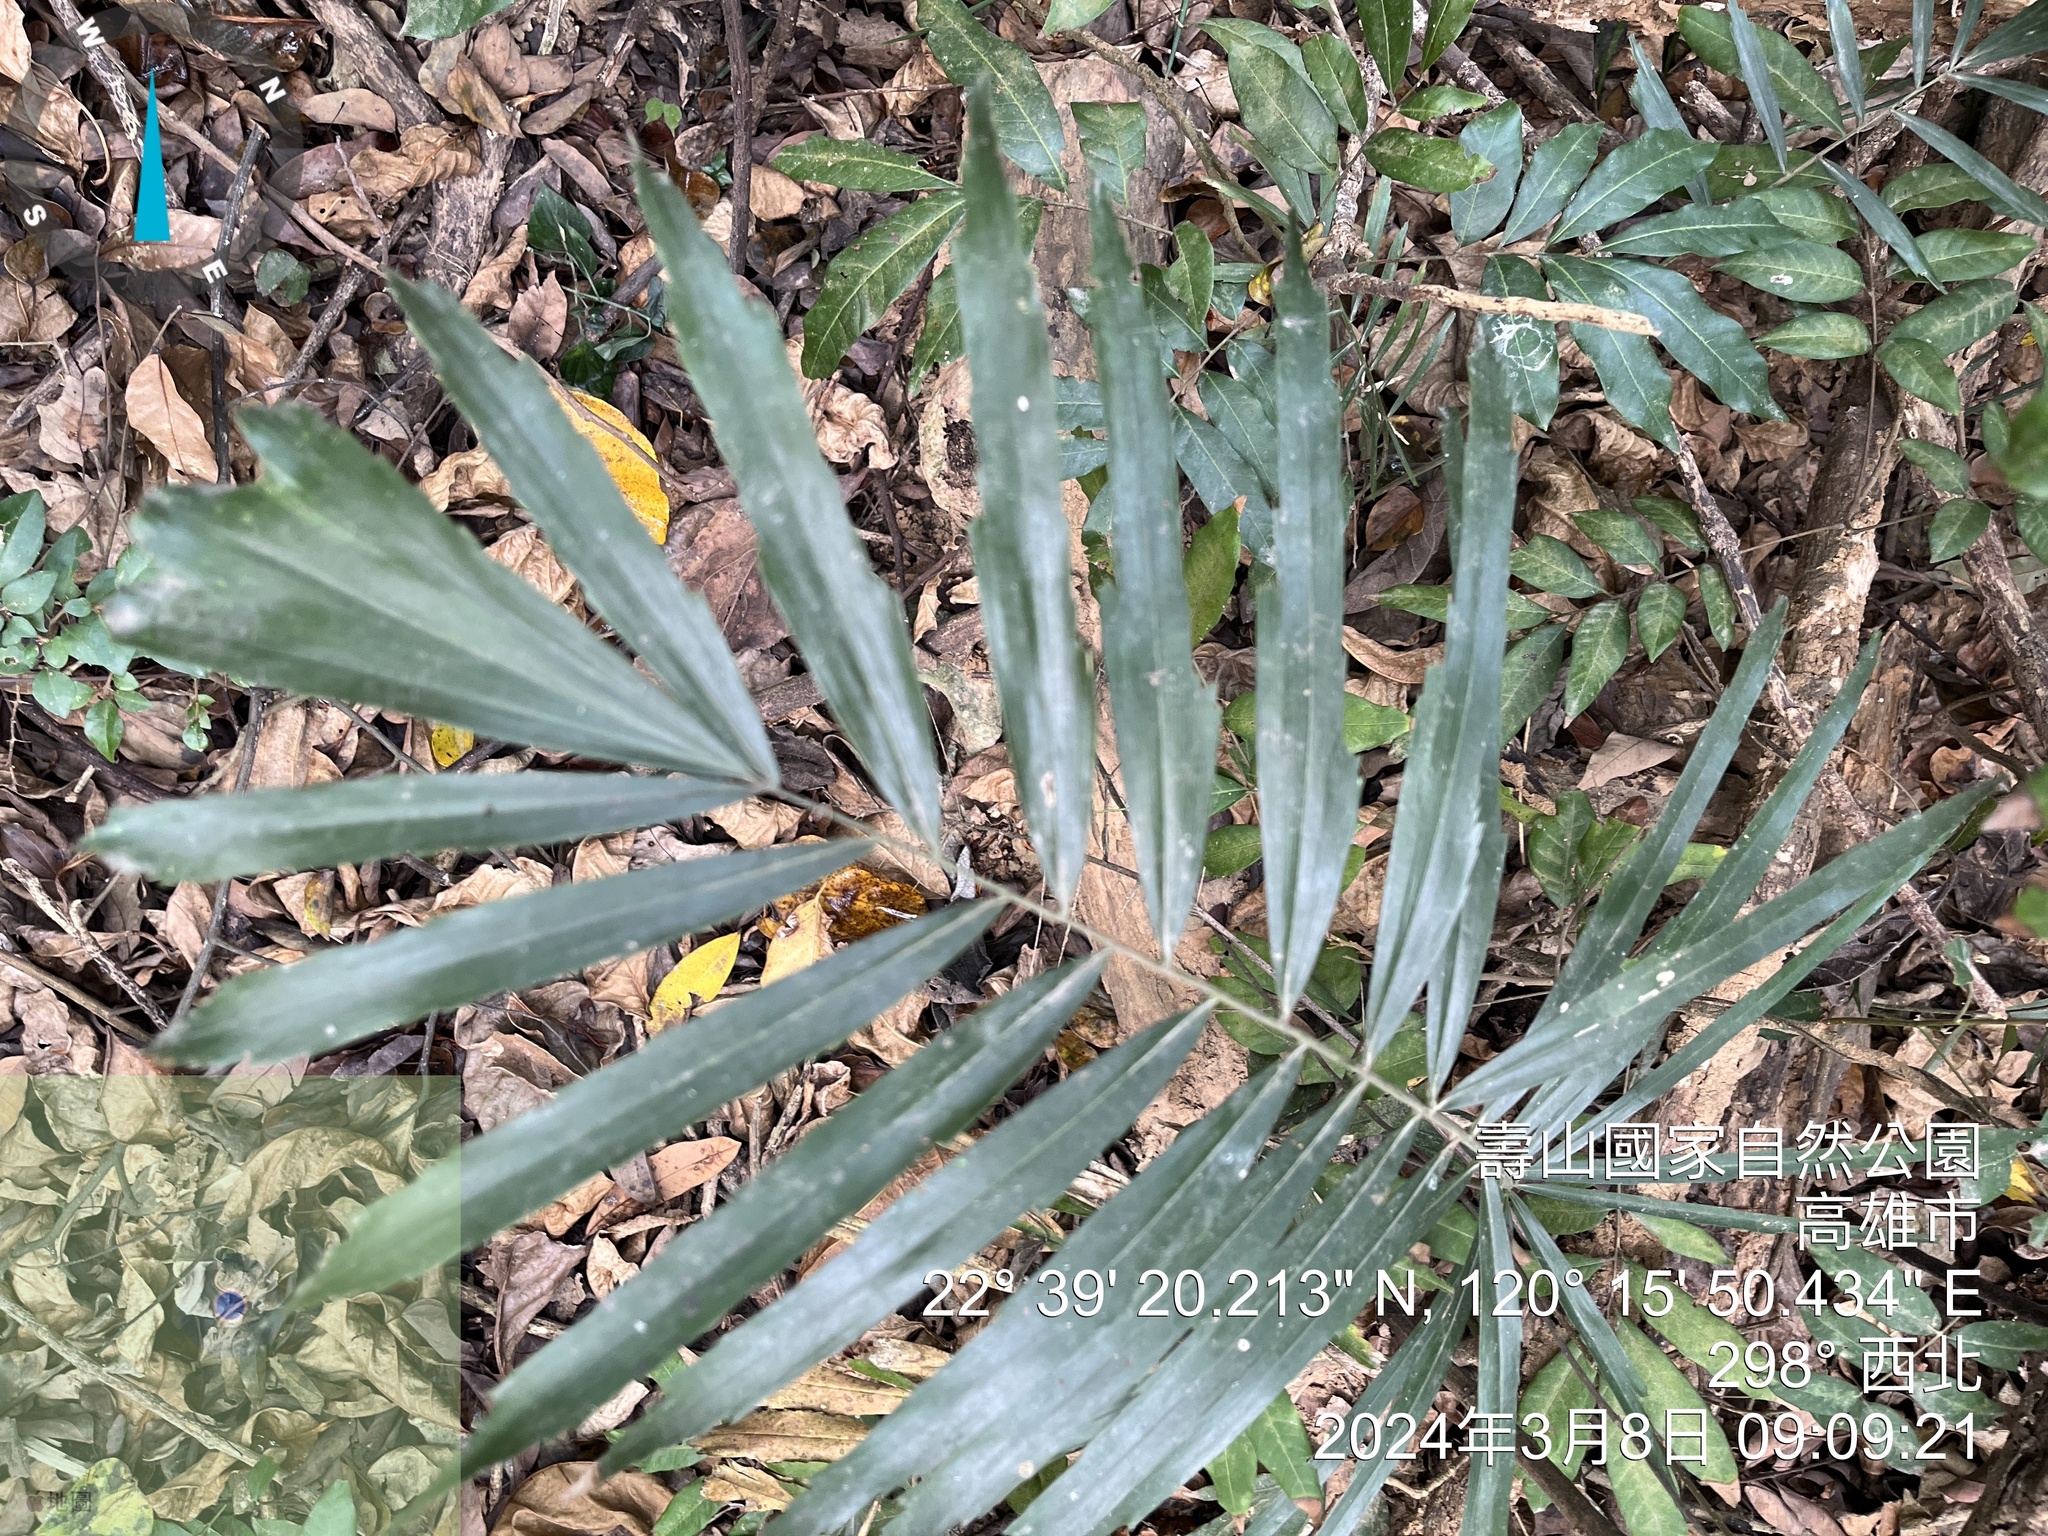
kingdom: Plantae
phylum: Tracheophyta
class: Liliopsida
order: Arecales
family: Arecaceae
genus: Arenga
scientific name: Arenga engleri
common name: Formosan sugar palm
